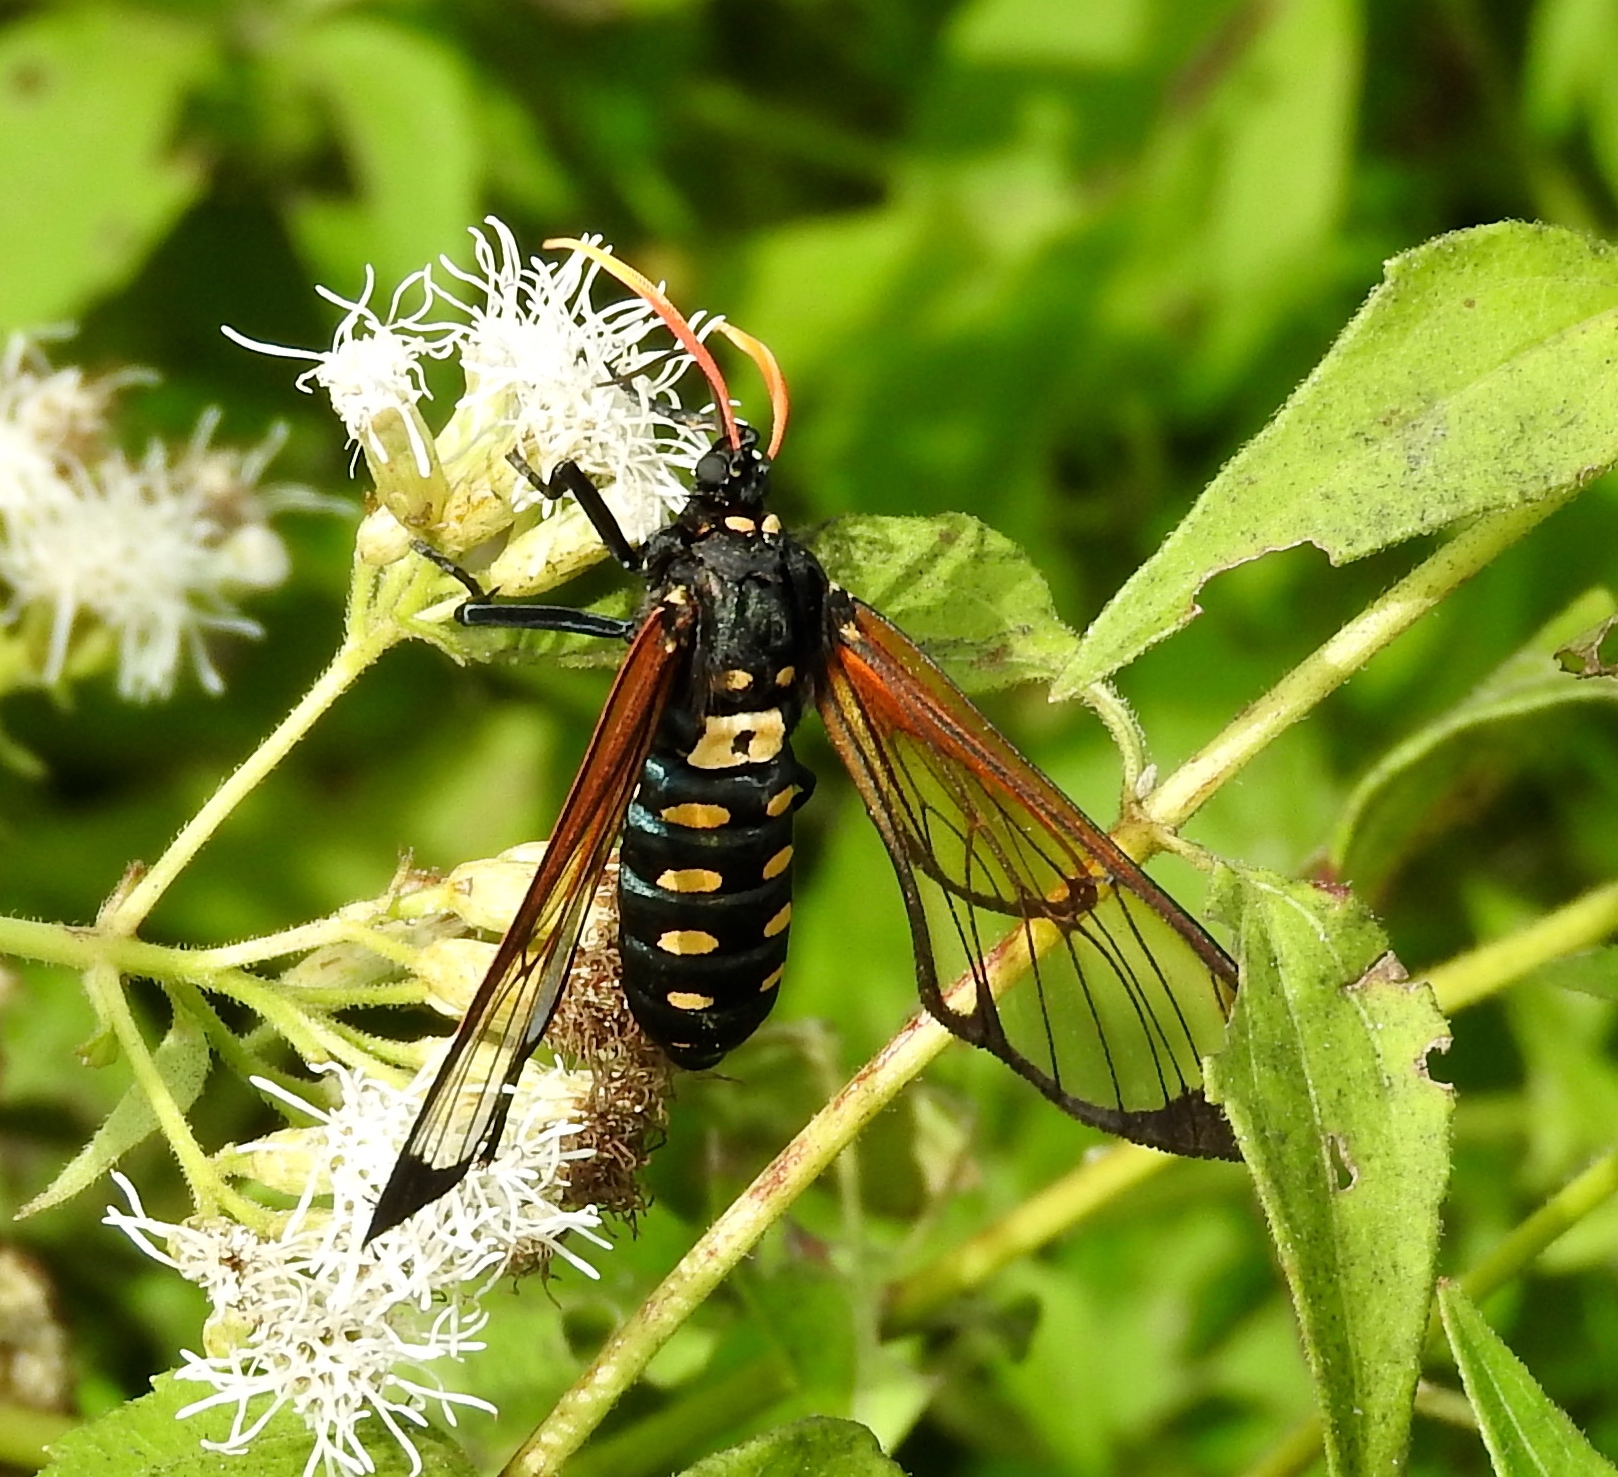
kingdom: Animalia
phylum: Arthropoda
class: Insecta
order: Lepidoptera
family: Erebidae
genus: Isanthrene
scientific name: Isanthrene perboscii
